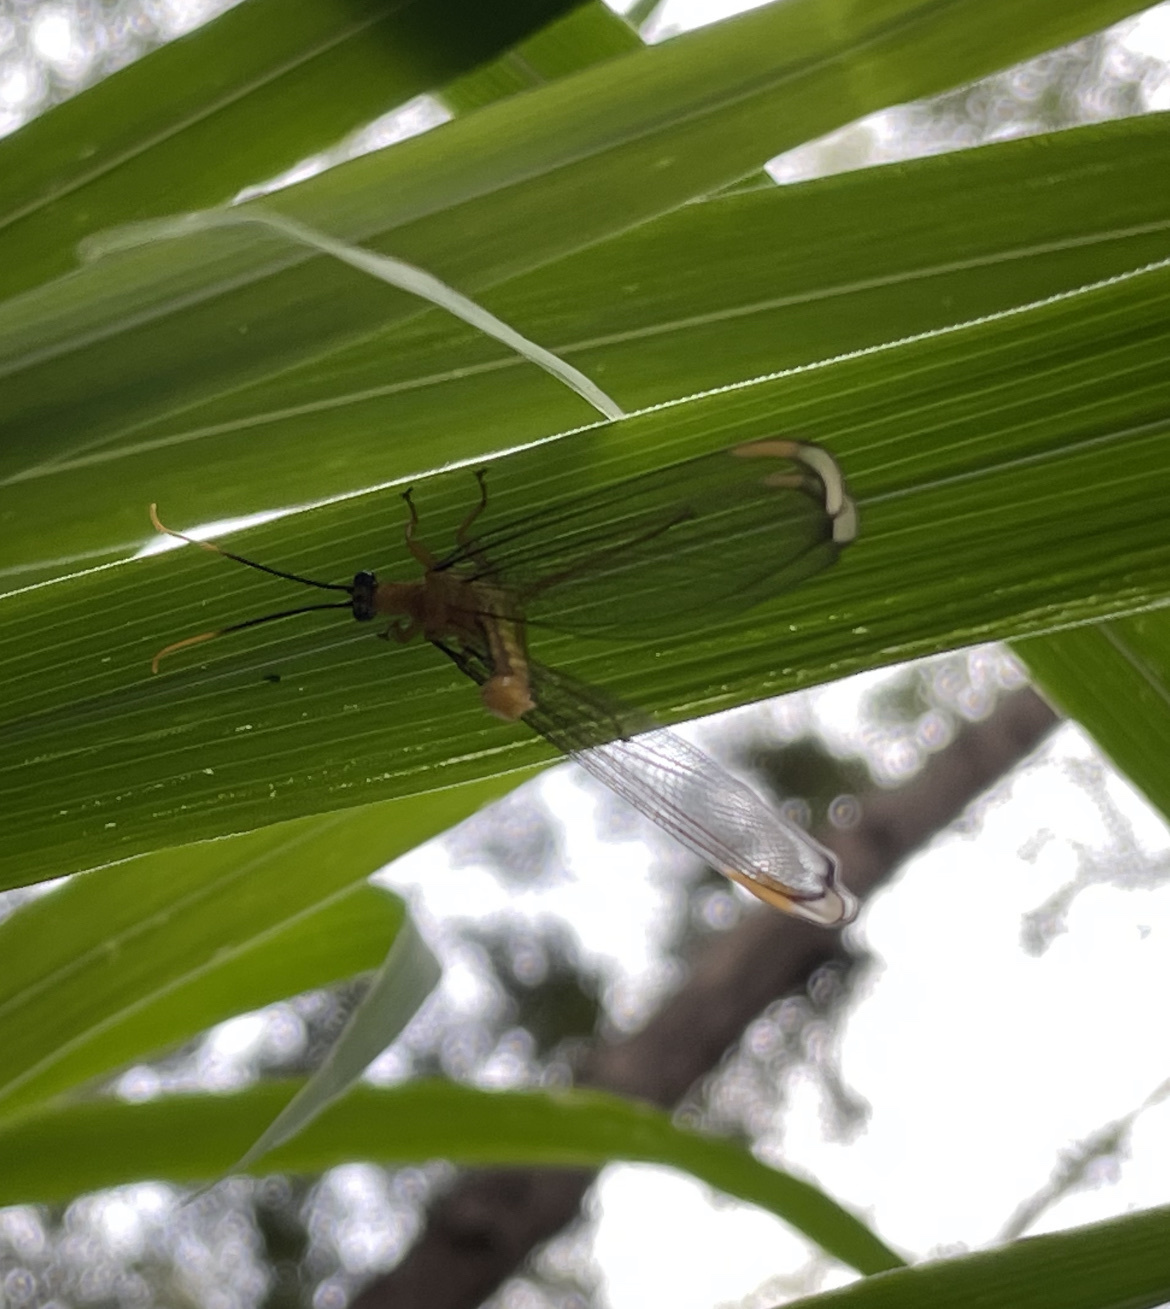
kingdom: Animalia
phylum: Arthropoda
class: Insecta
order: Neuroptera
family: Nymphidae
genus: Nymphes
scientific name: Nymphes myrmeleonoides
